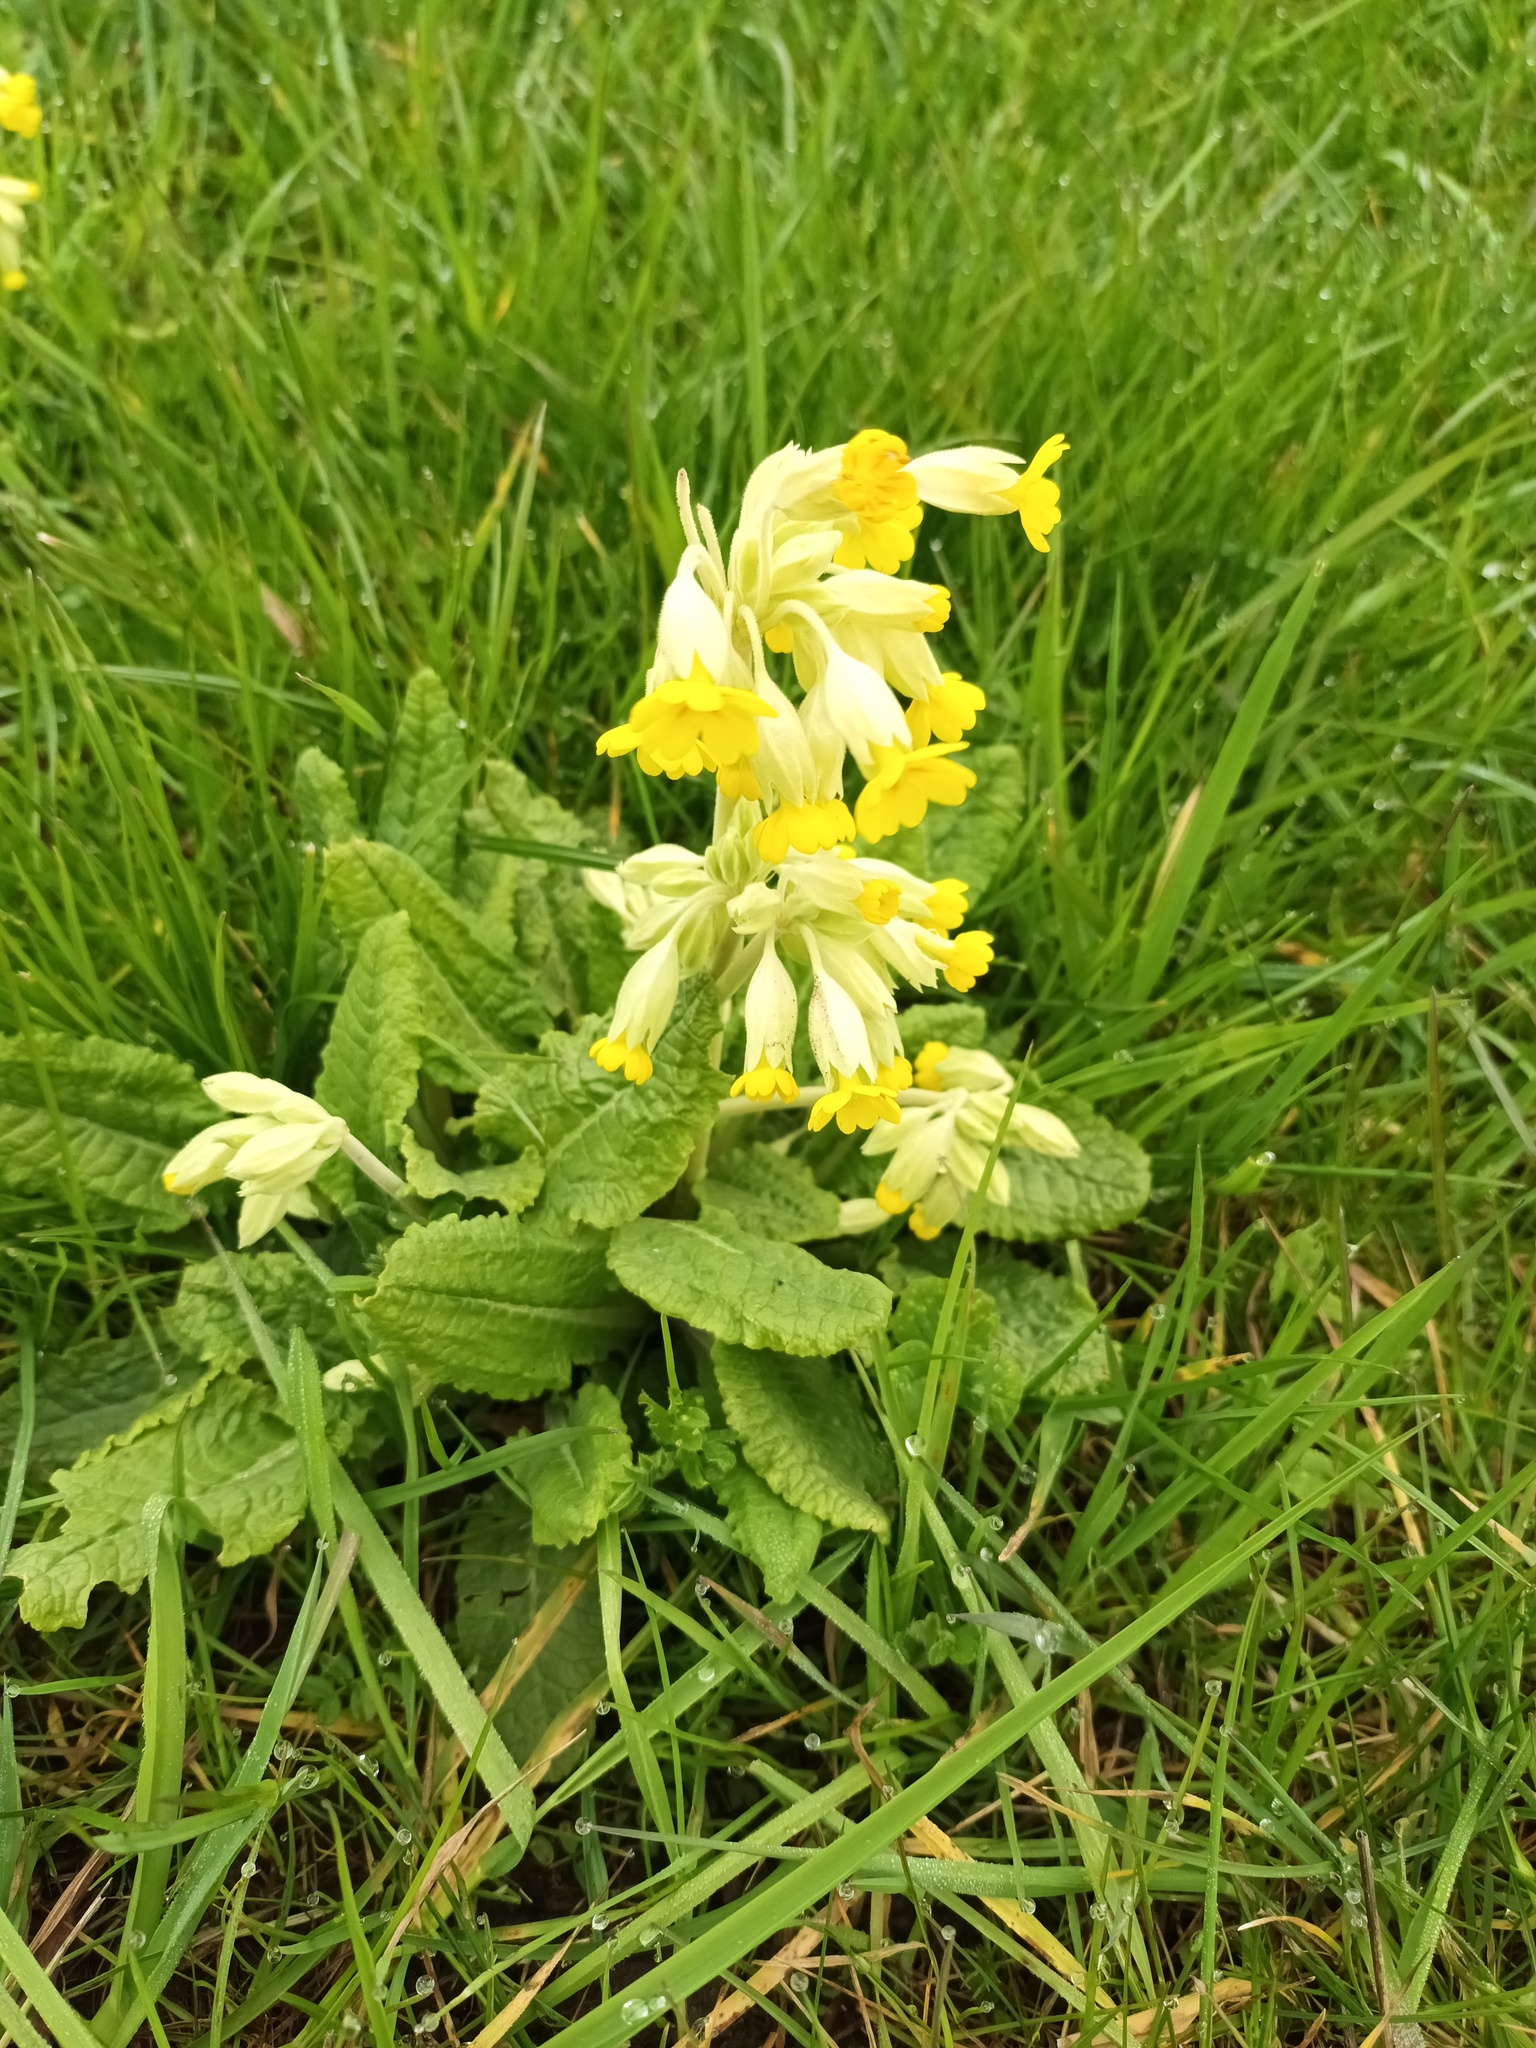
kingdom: Plantae
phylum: Tracheophyta
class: Magnoliopsida
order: Ericales
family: Primulaceae
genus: Primula
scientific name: Primula veris
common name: Cowslip
